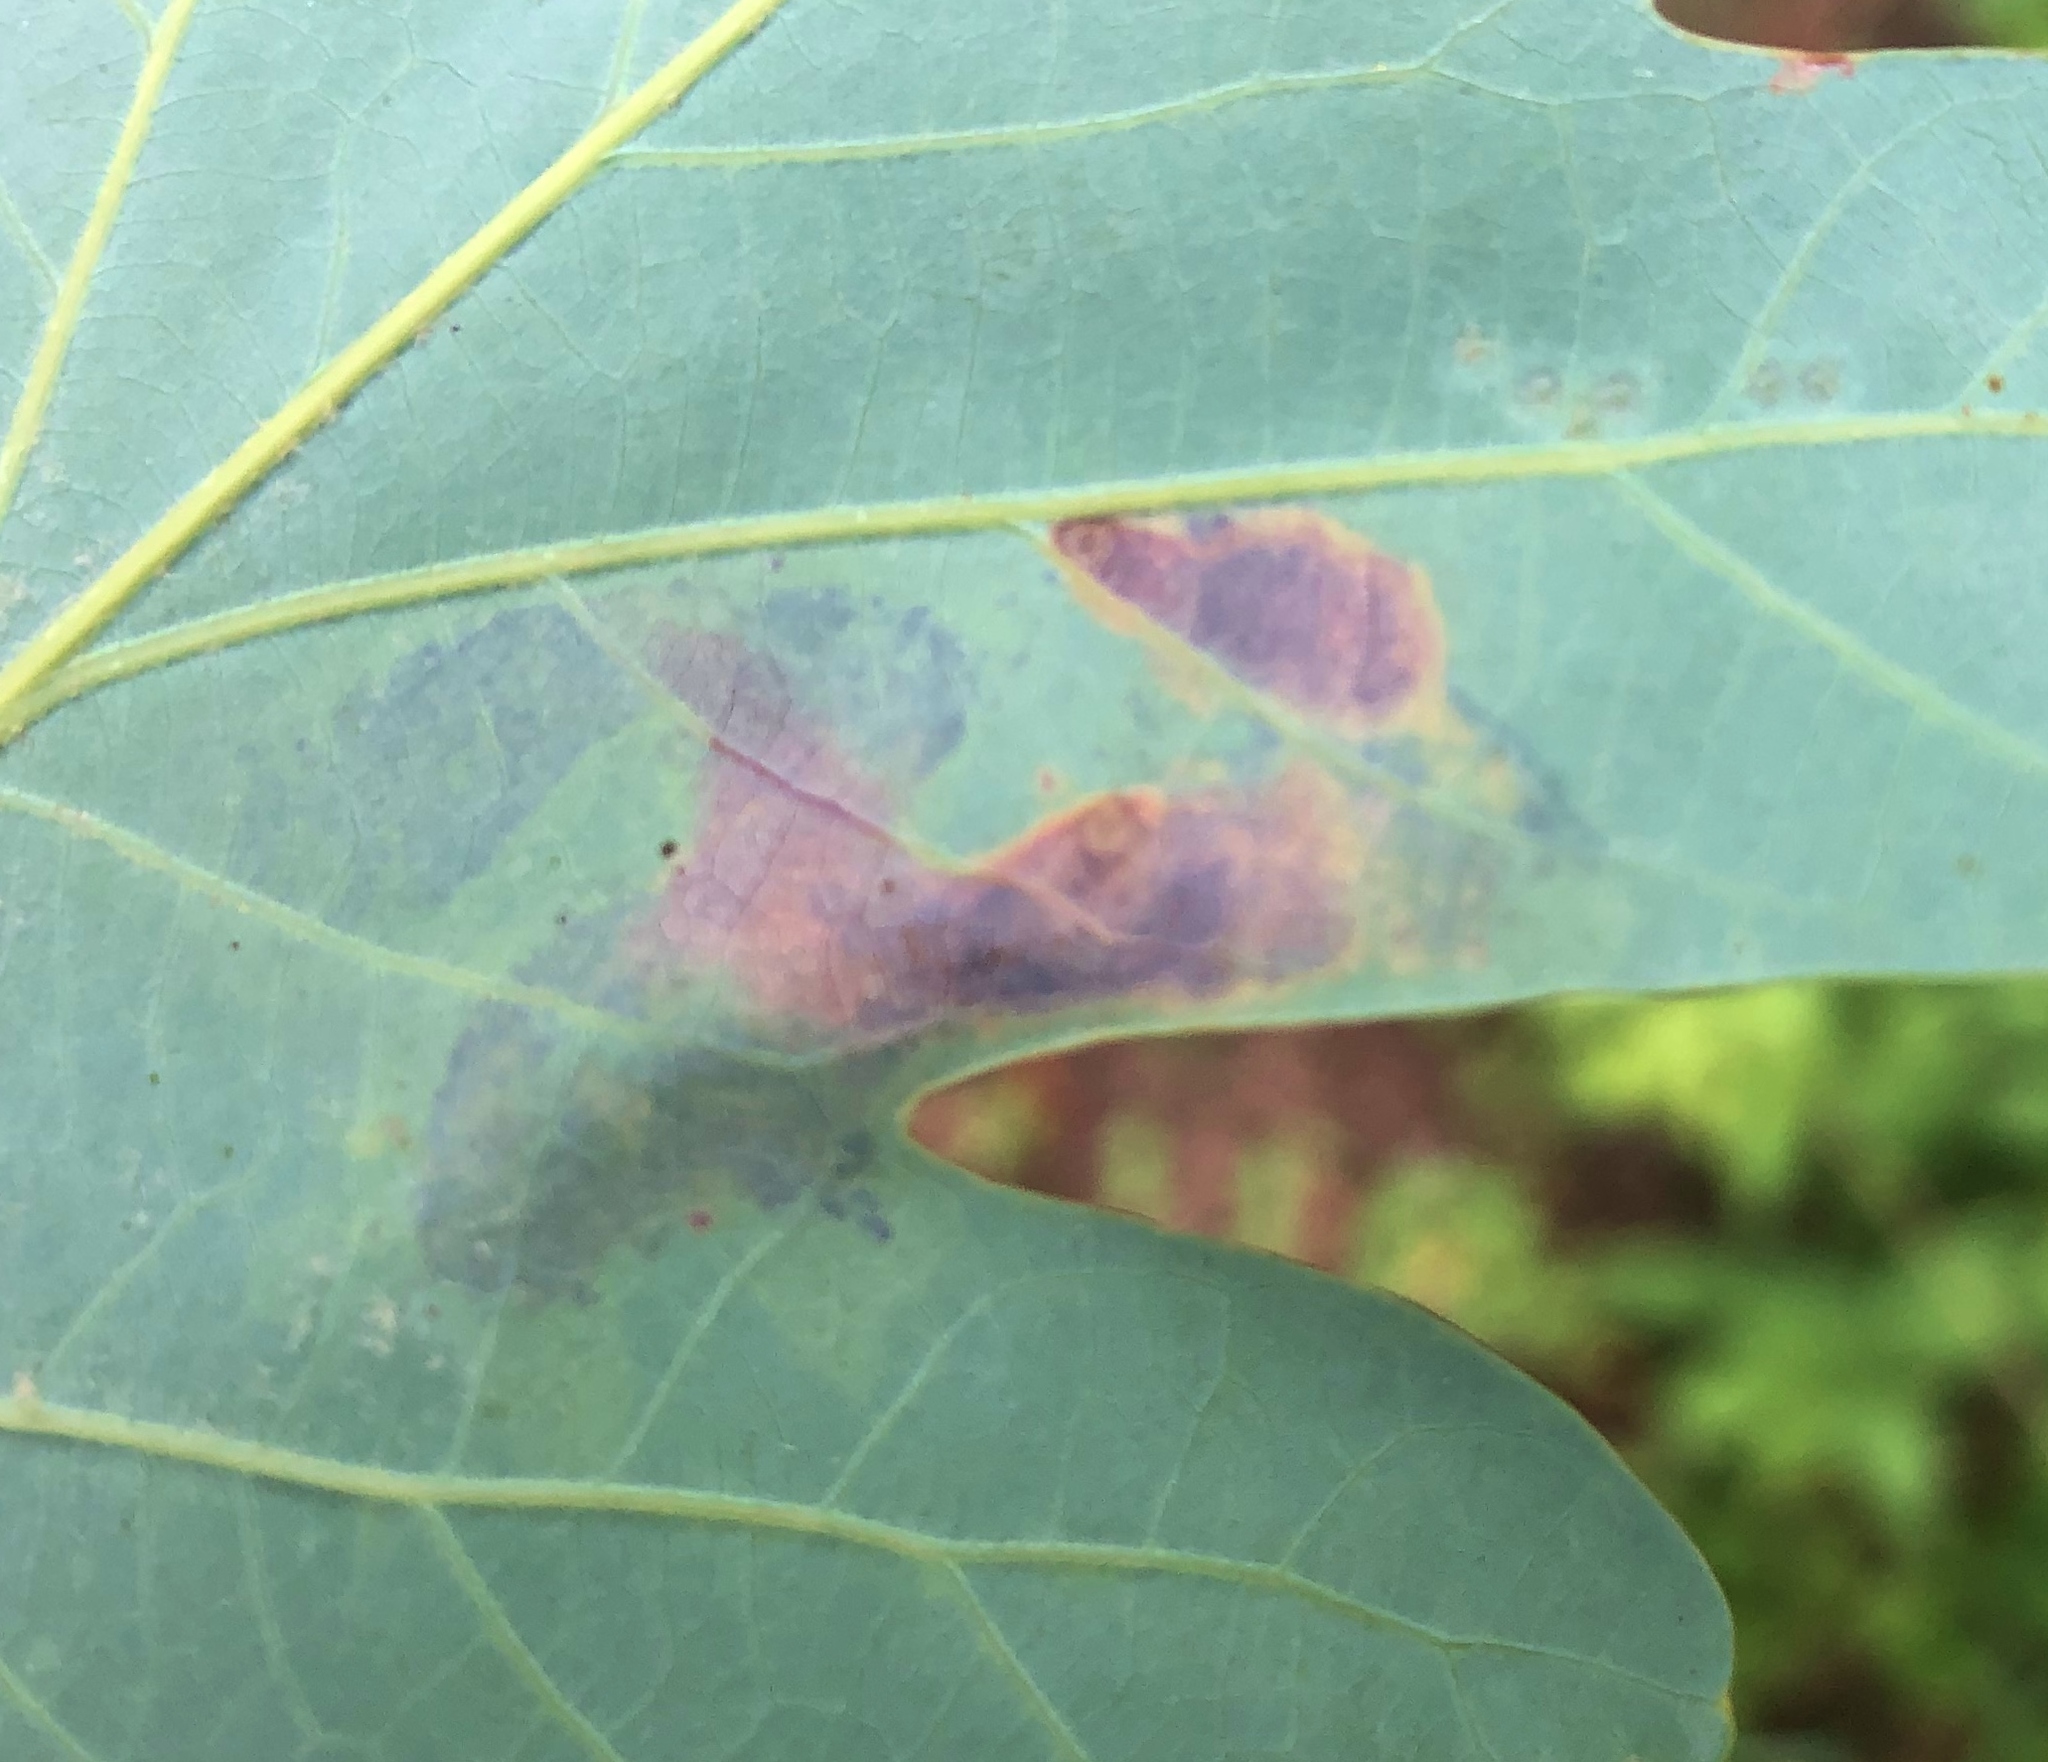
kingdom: Animalia
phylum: Arthropoda
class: Insecta
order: Lepidoptera
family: Gracillariidae
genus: Cameraria
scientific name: Cameraria hamadryadella
